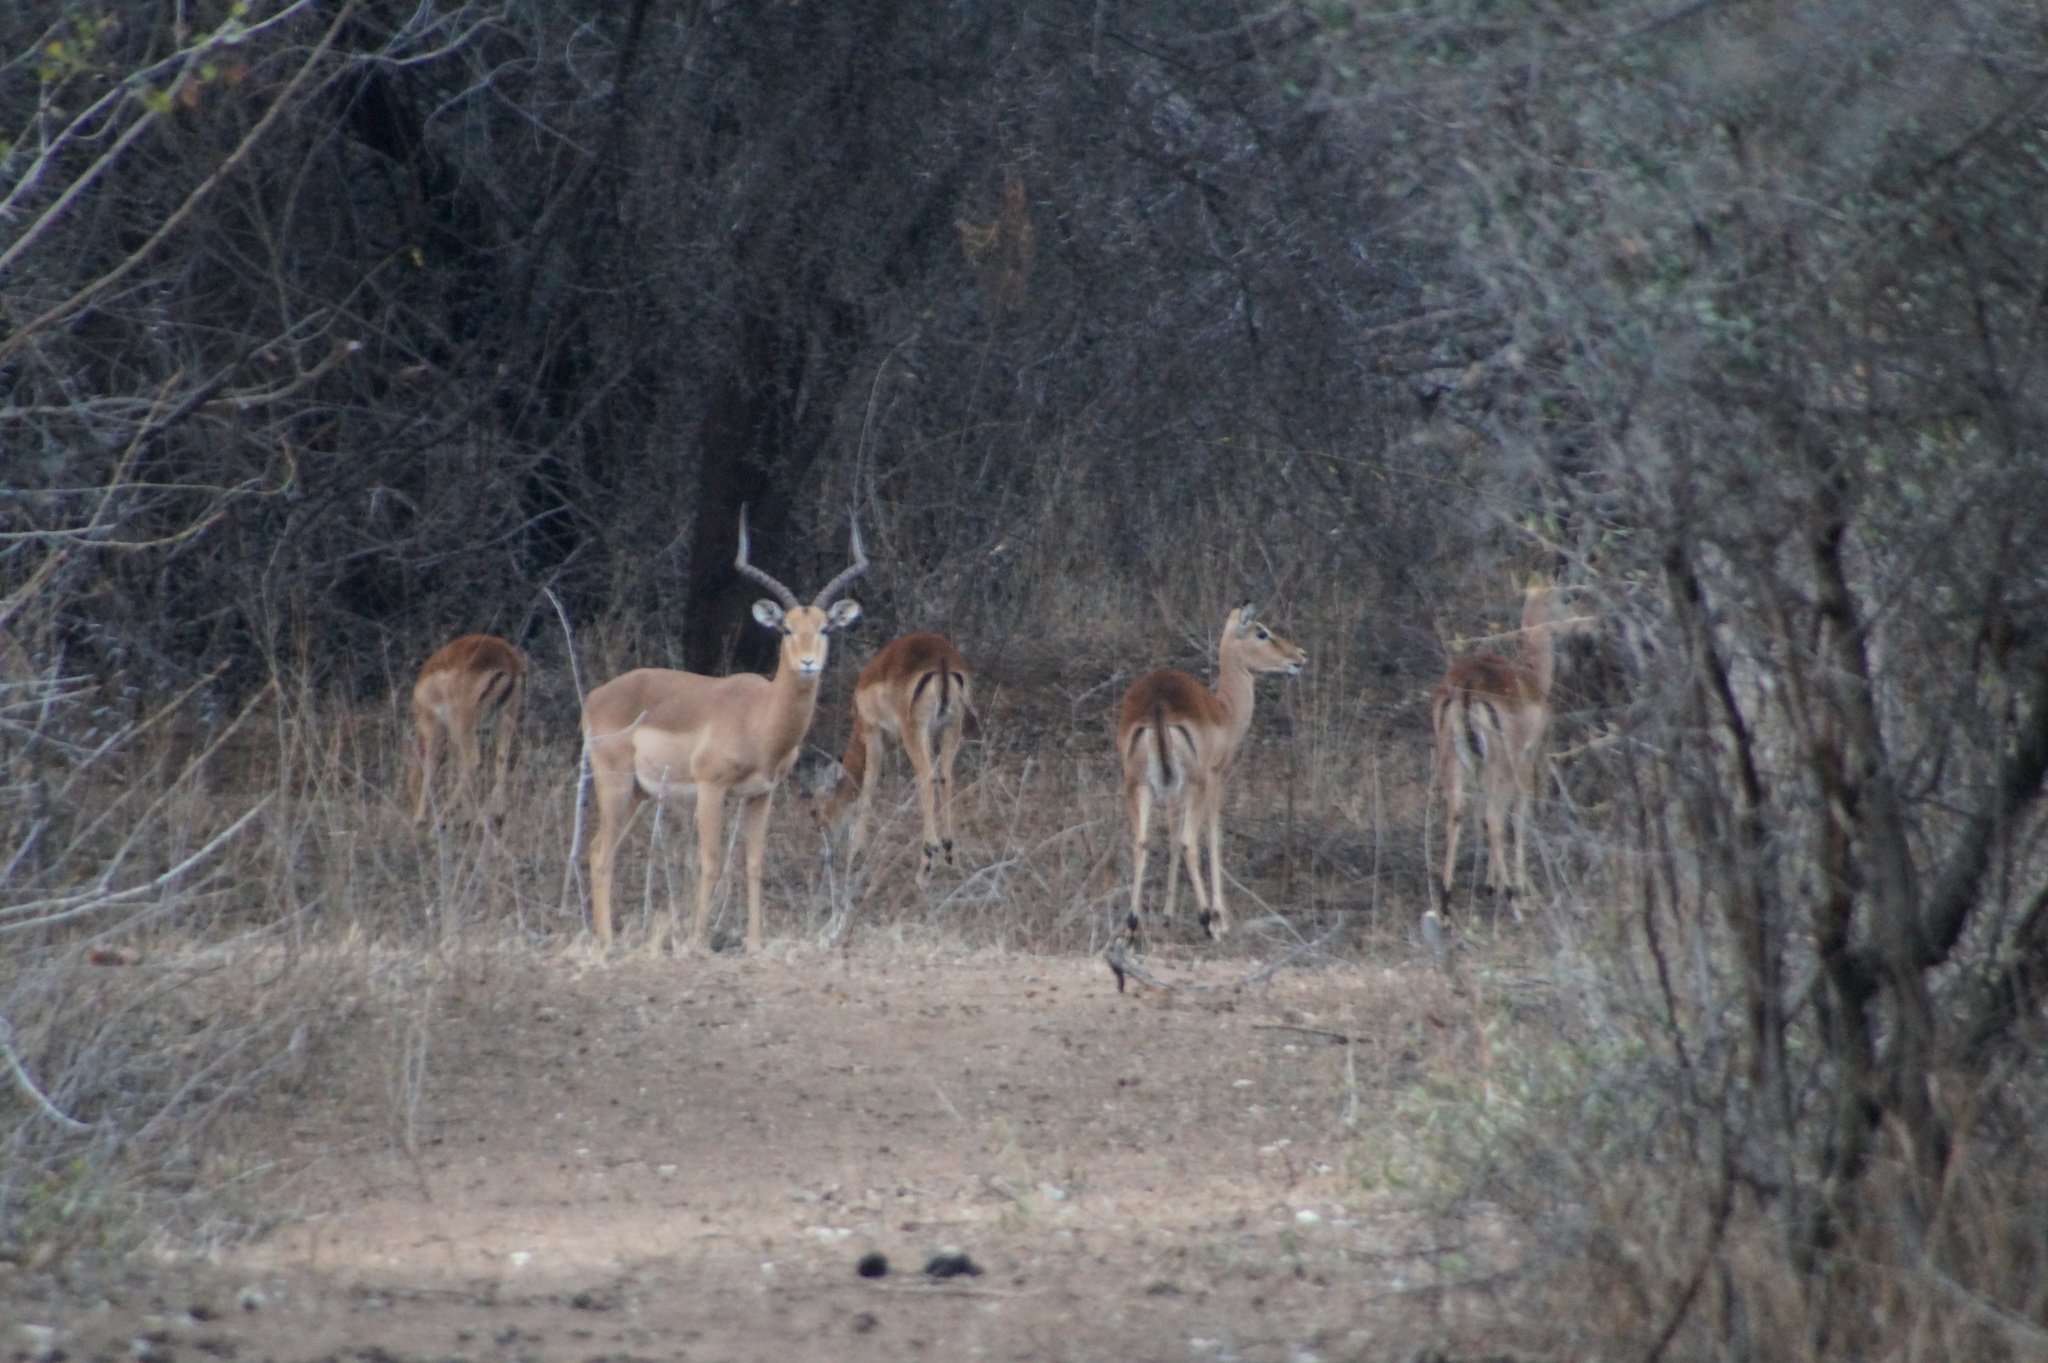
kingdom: Animalia
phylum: Chordata
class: Mammalia
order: Artiodactyla
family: Bovidae
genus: Aepyceros
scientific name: Aepyceros melampus
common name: Impala
